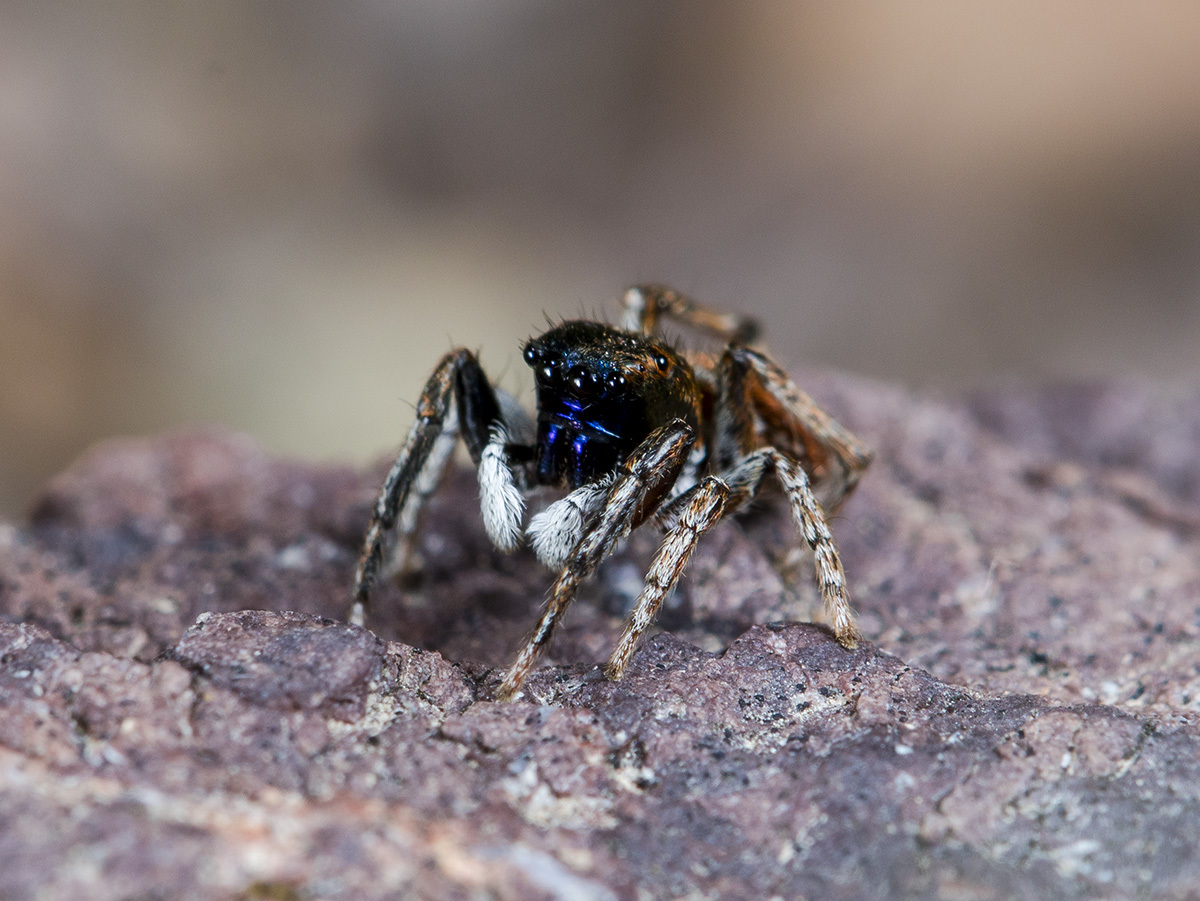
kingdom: Animalia
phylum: Arthropoda
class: Arachnida
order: Araneae
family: Salticidae
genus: Attulus
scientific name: Attulus mirandus
